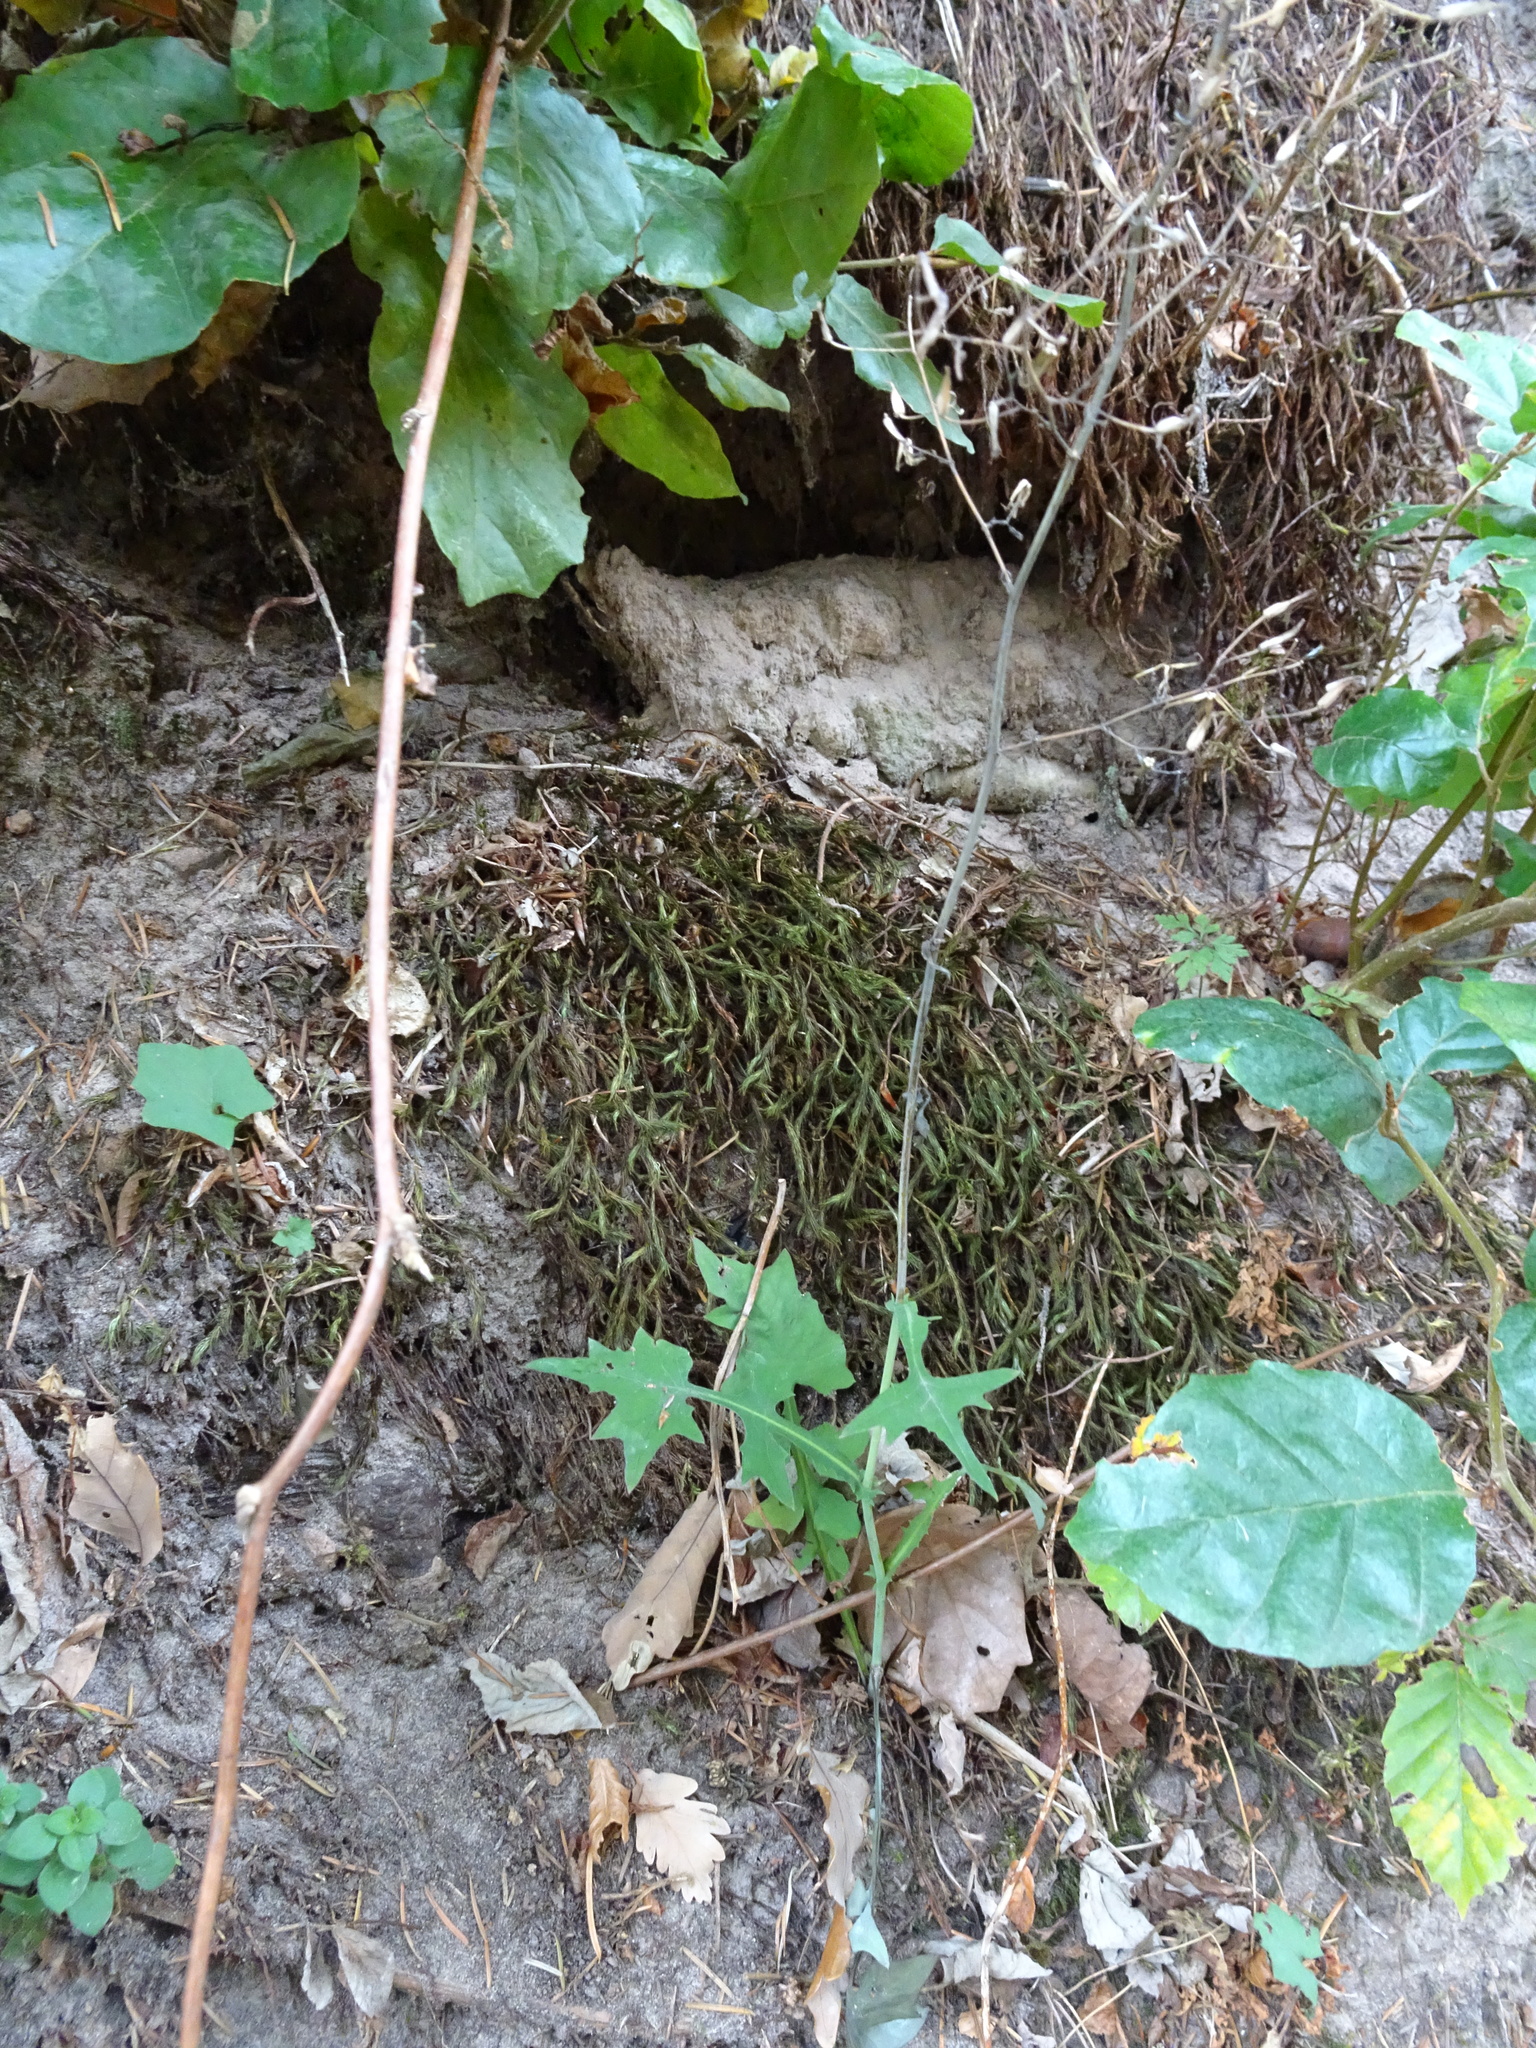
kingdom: Plantae
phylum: Tracheophyta
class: Magnoliopsida
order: Asterales
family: Asteraceae
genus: Mycelis
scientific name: Mycelis muralis
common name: Wall lettuce
